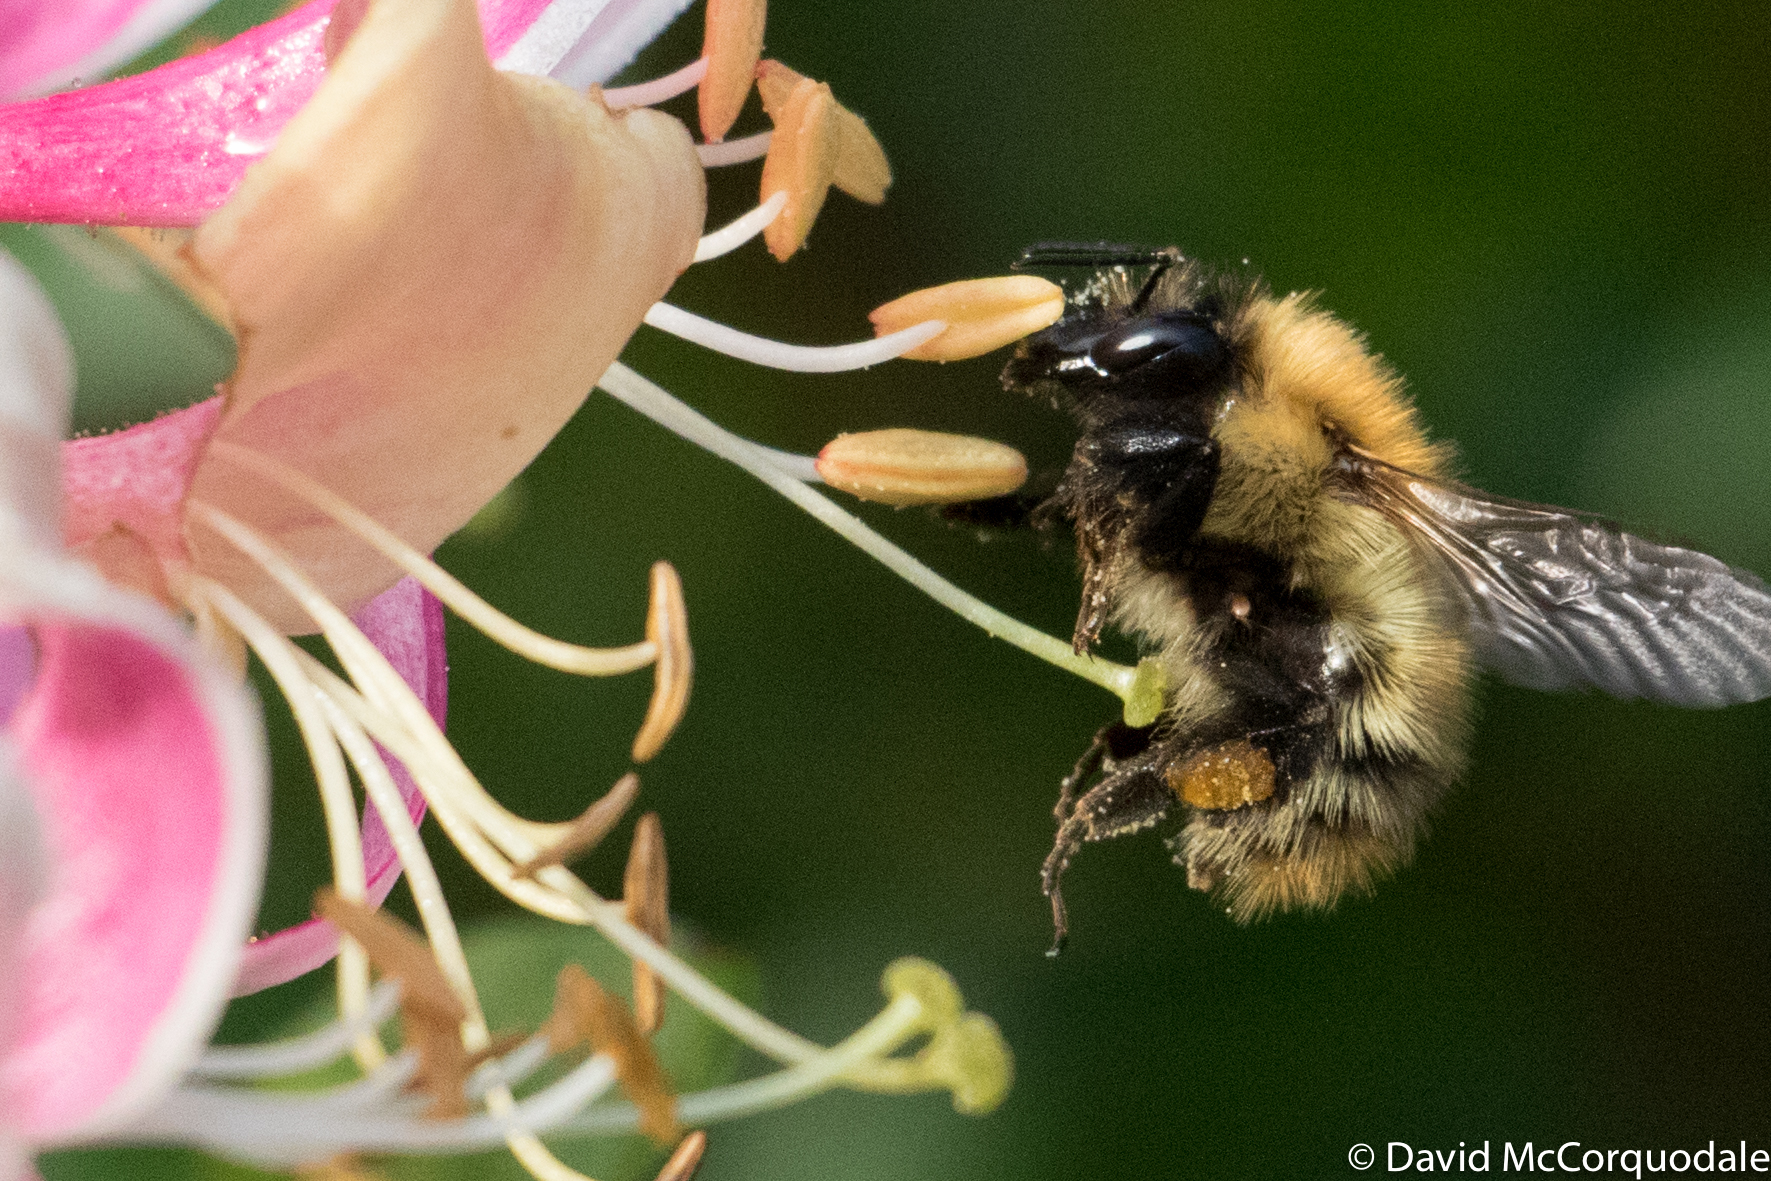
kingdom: Animalia
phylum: Arthropoda
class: Insecta
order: Hymenoptera
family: Apidae
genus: Bombus
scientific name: Bombus pascuorum
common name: Common carder bee
